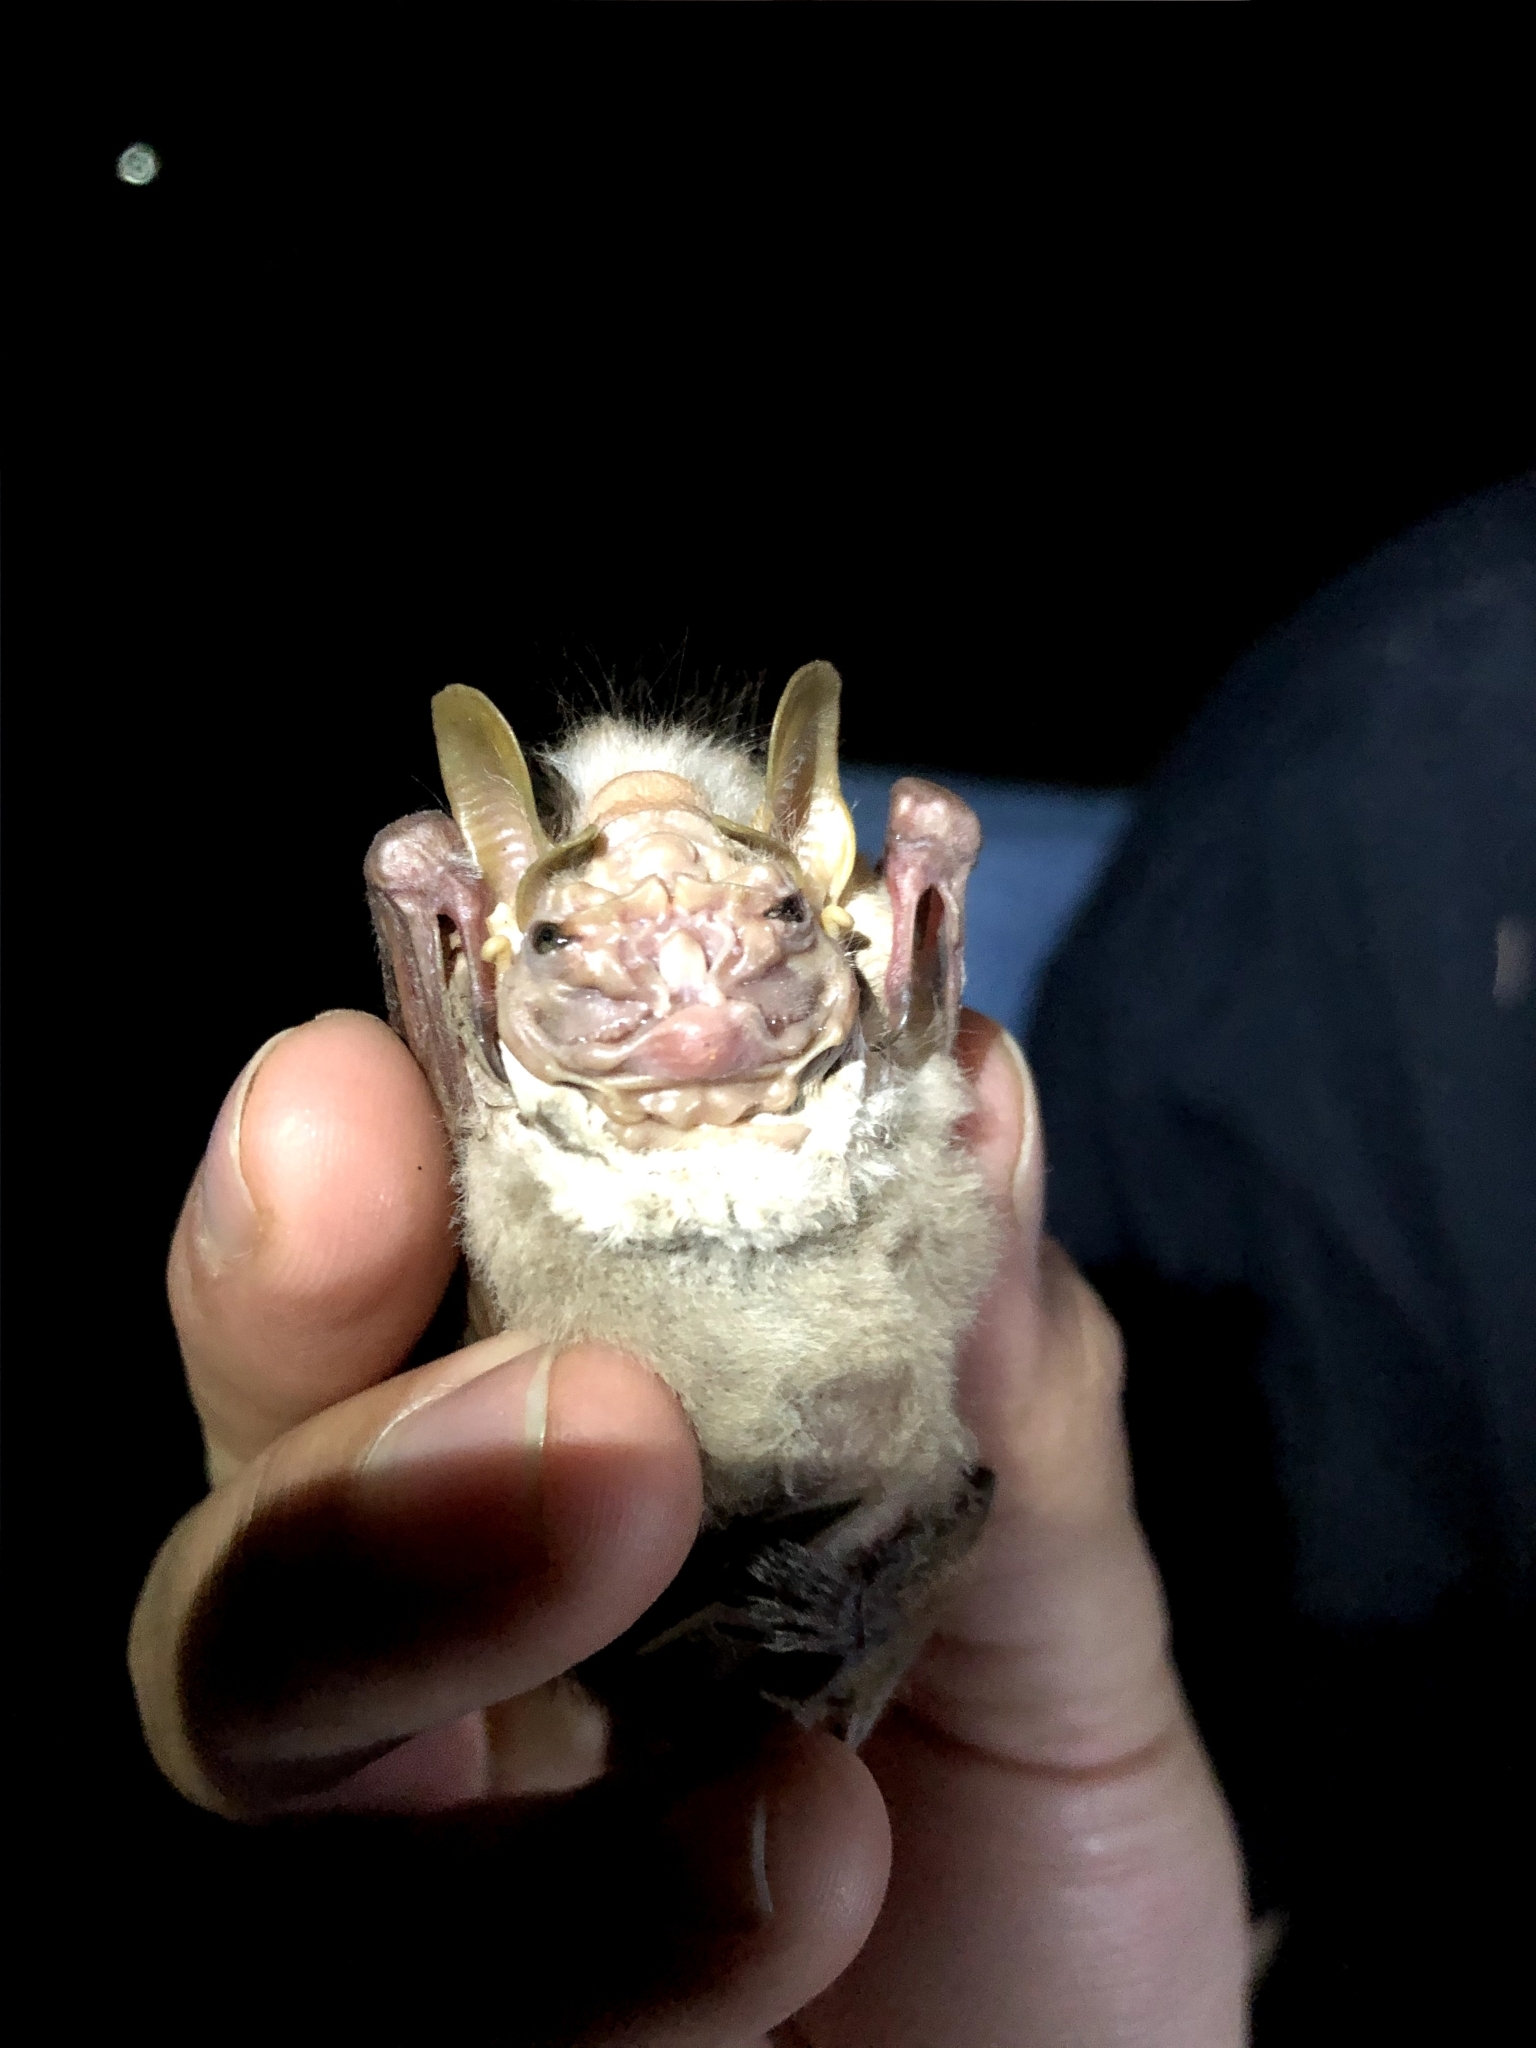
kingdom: Animalia
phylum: Chordata
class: Mammalia
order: Chiroptera
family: Phyllostomidae
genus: Centurio
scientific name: Centurio senex
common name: Wrinkle-faced bat
